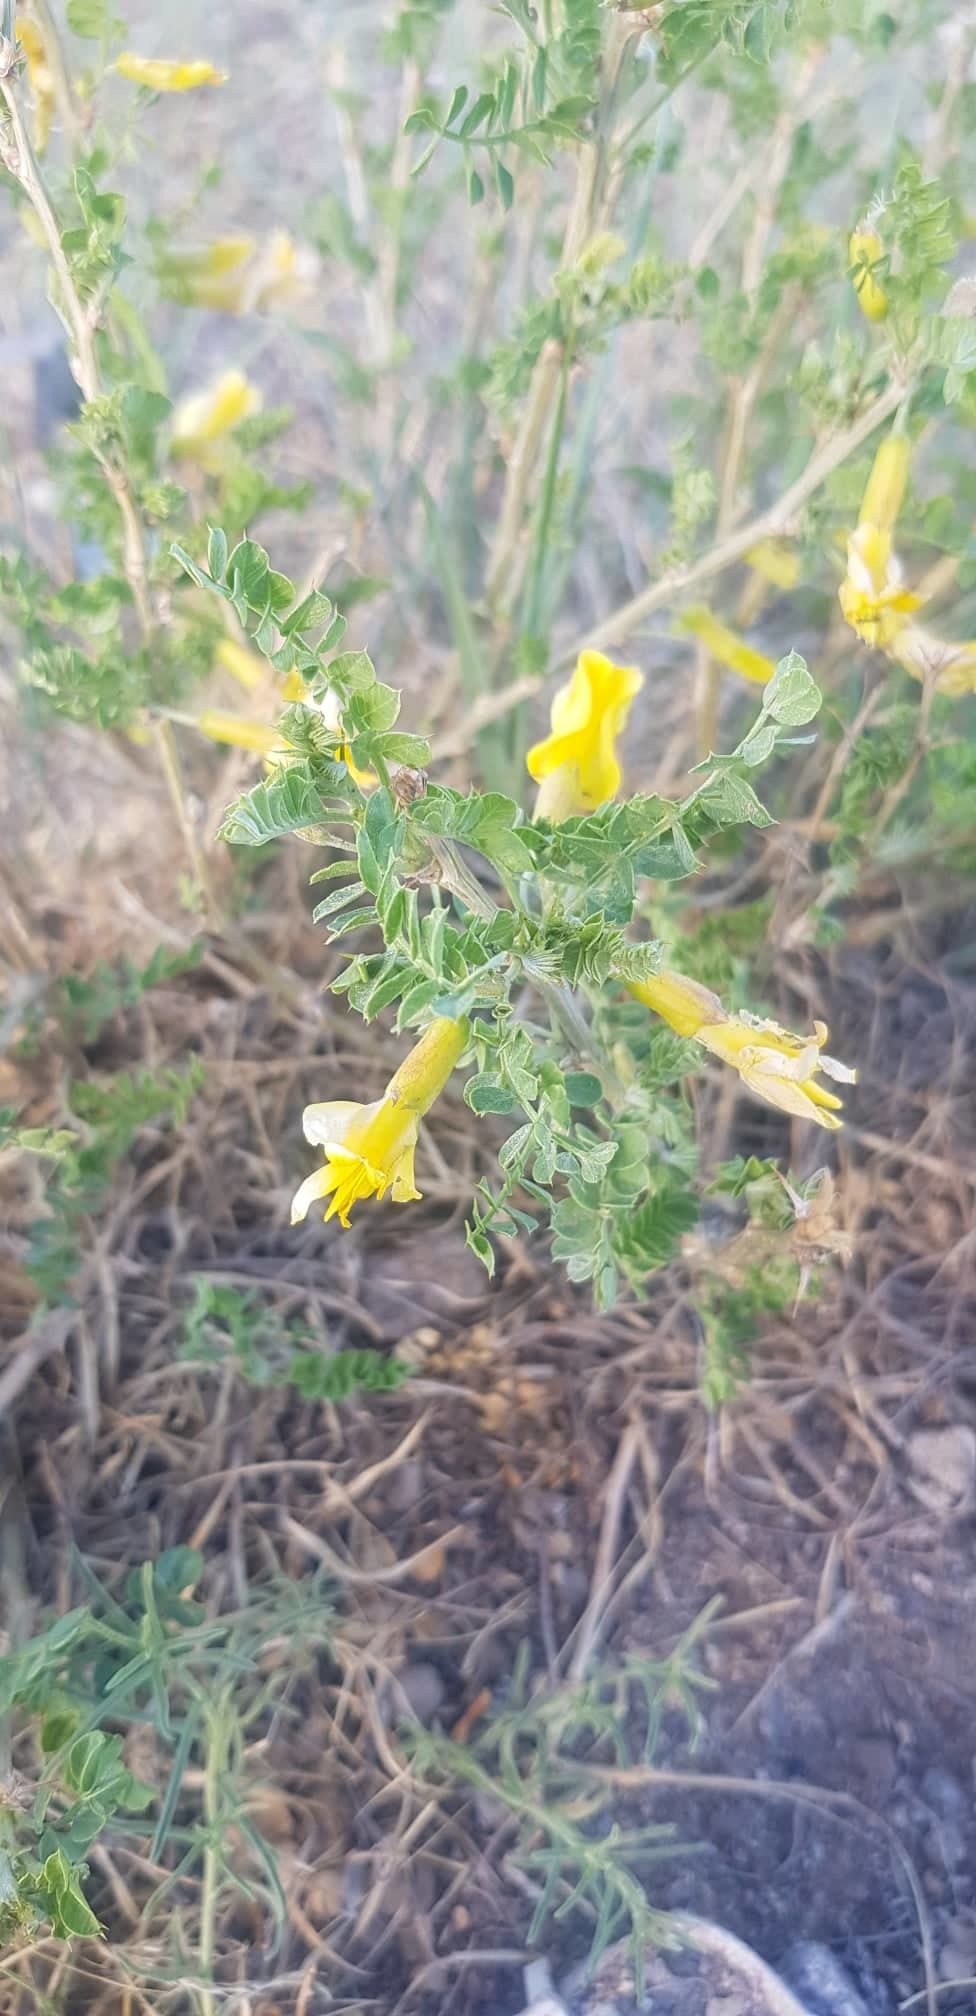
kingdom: Plantae
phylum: Tracheophyta
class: Magnoliopsida
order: Fabales
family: Fabaceae
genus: Caragana
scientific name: Caragana microphylla
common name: Littleleaf peashrub
